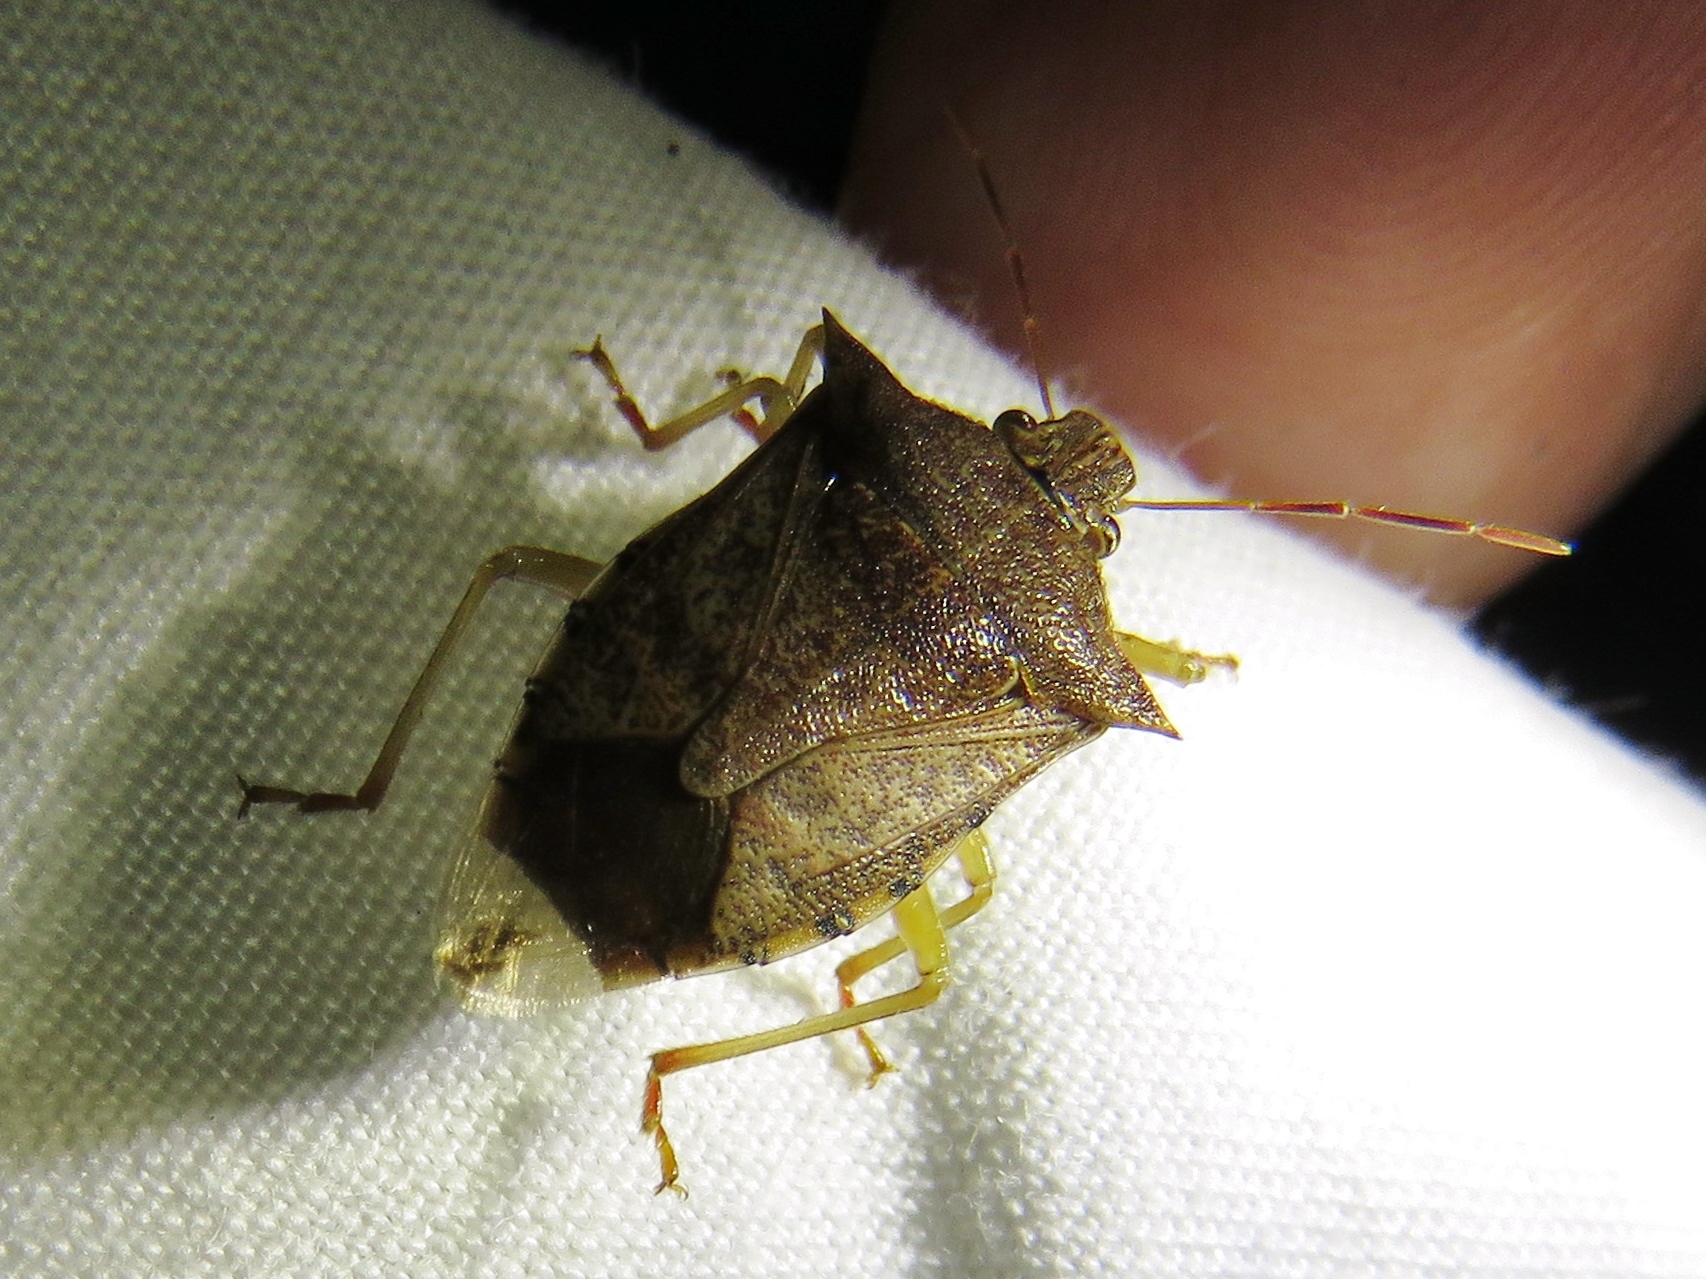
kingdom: Animalia
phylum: Arthropoda
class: Insecta
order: Hemiptera
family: Pentatomidae
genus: Podisus
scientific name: Podisus maculiventris
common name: Spined soldier bug
